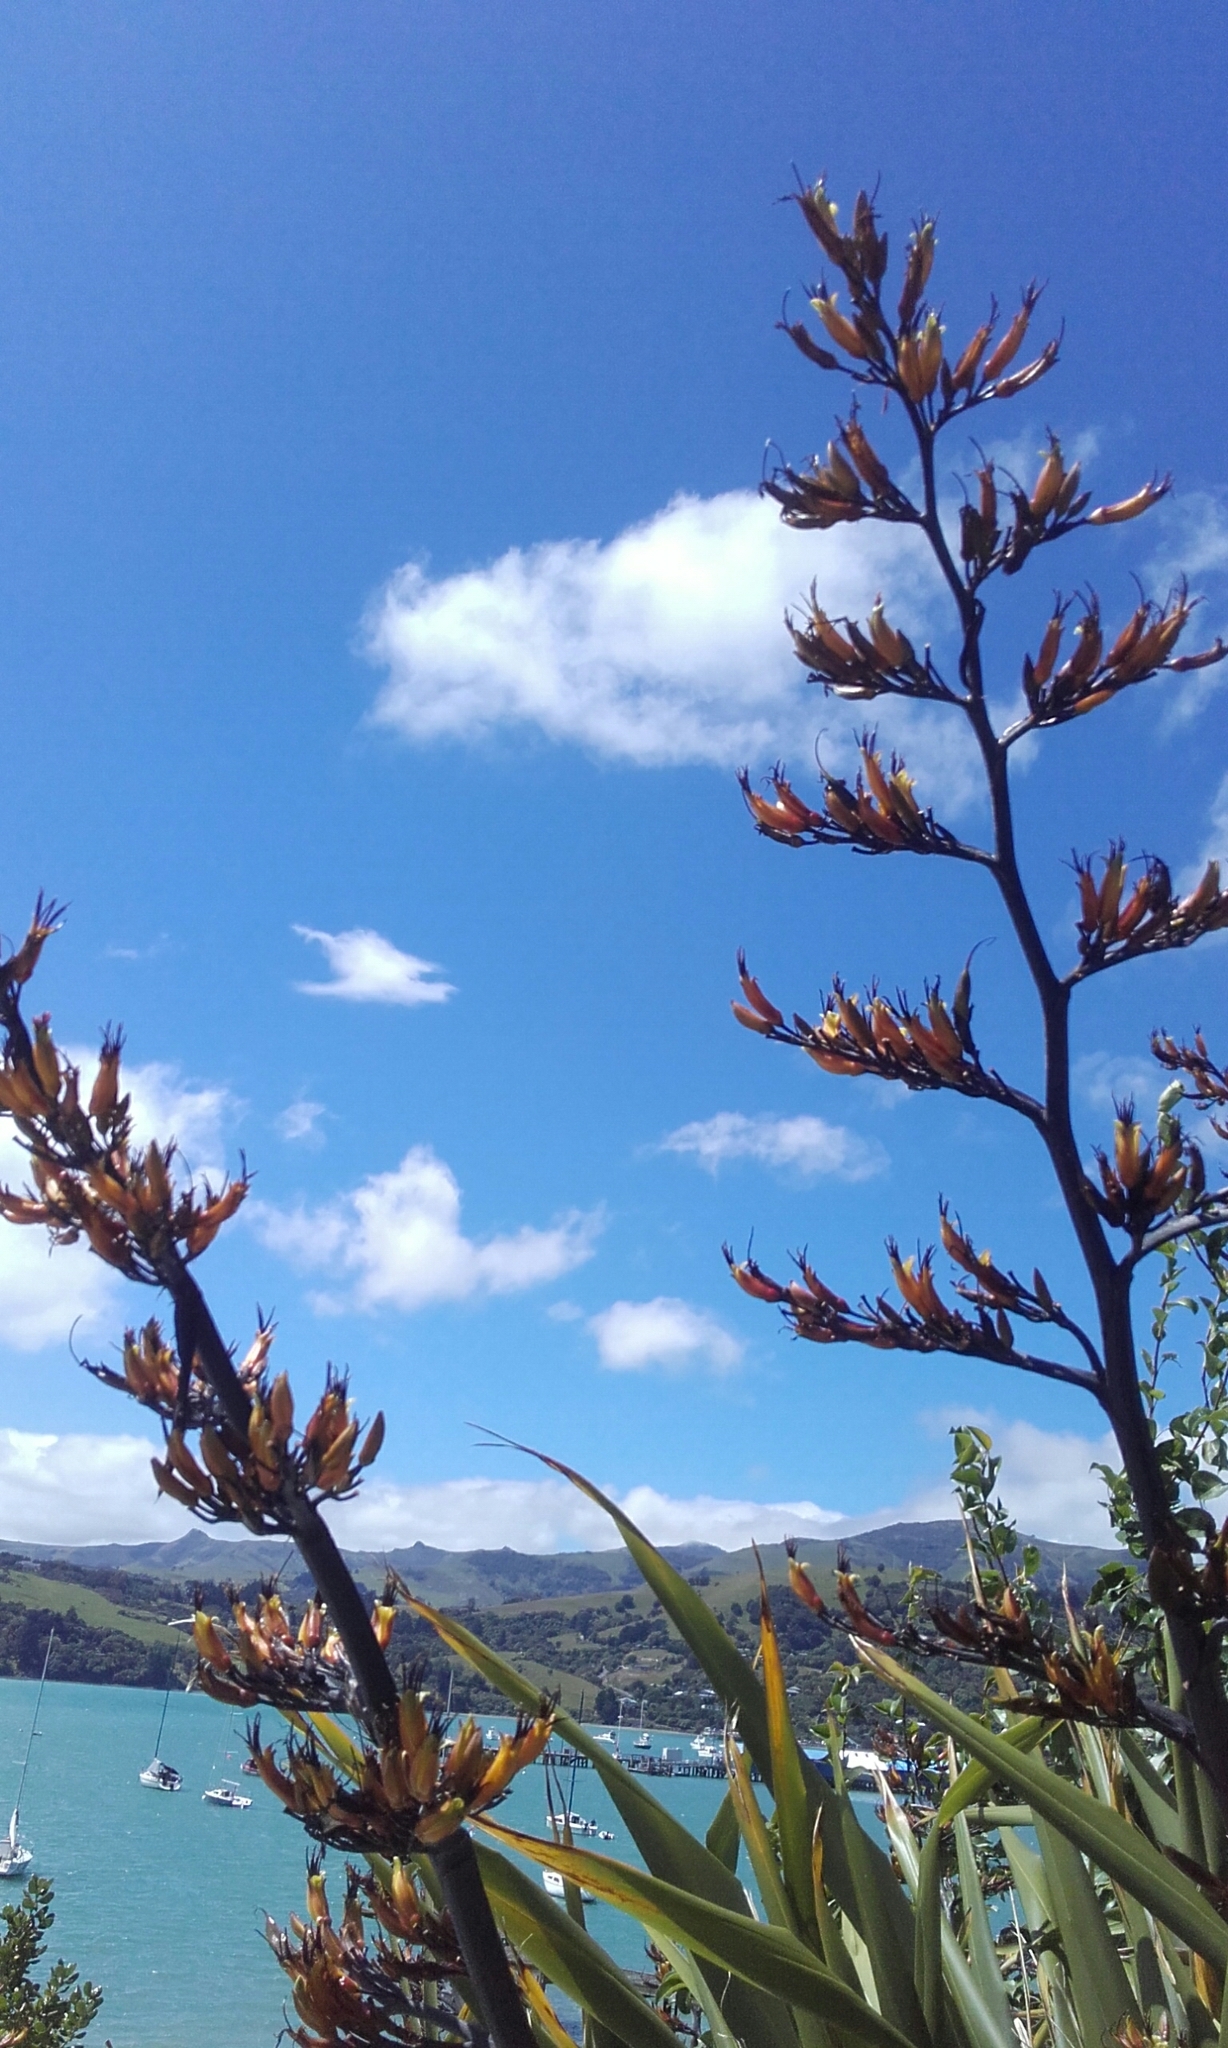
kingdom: Plantae
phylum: Tracheophyta
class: Liliopsida
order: Asparagales
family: Asphodelaceae
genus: Phormium
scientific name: Phormium tenax
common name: New zealand flax
